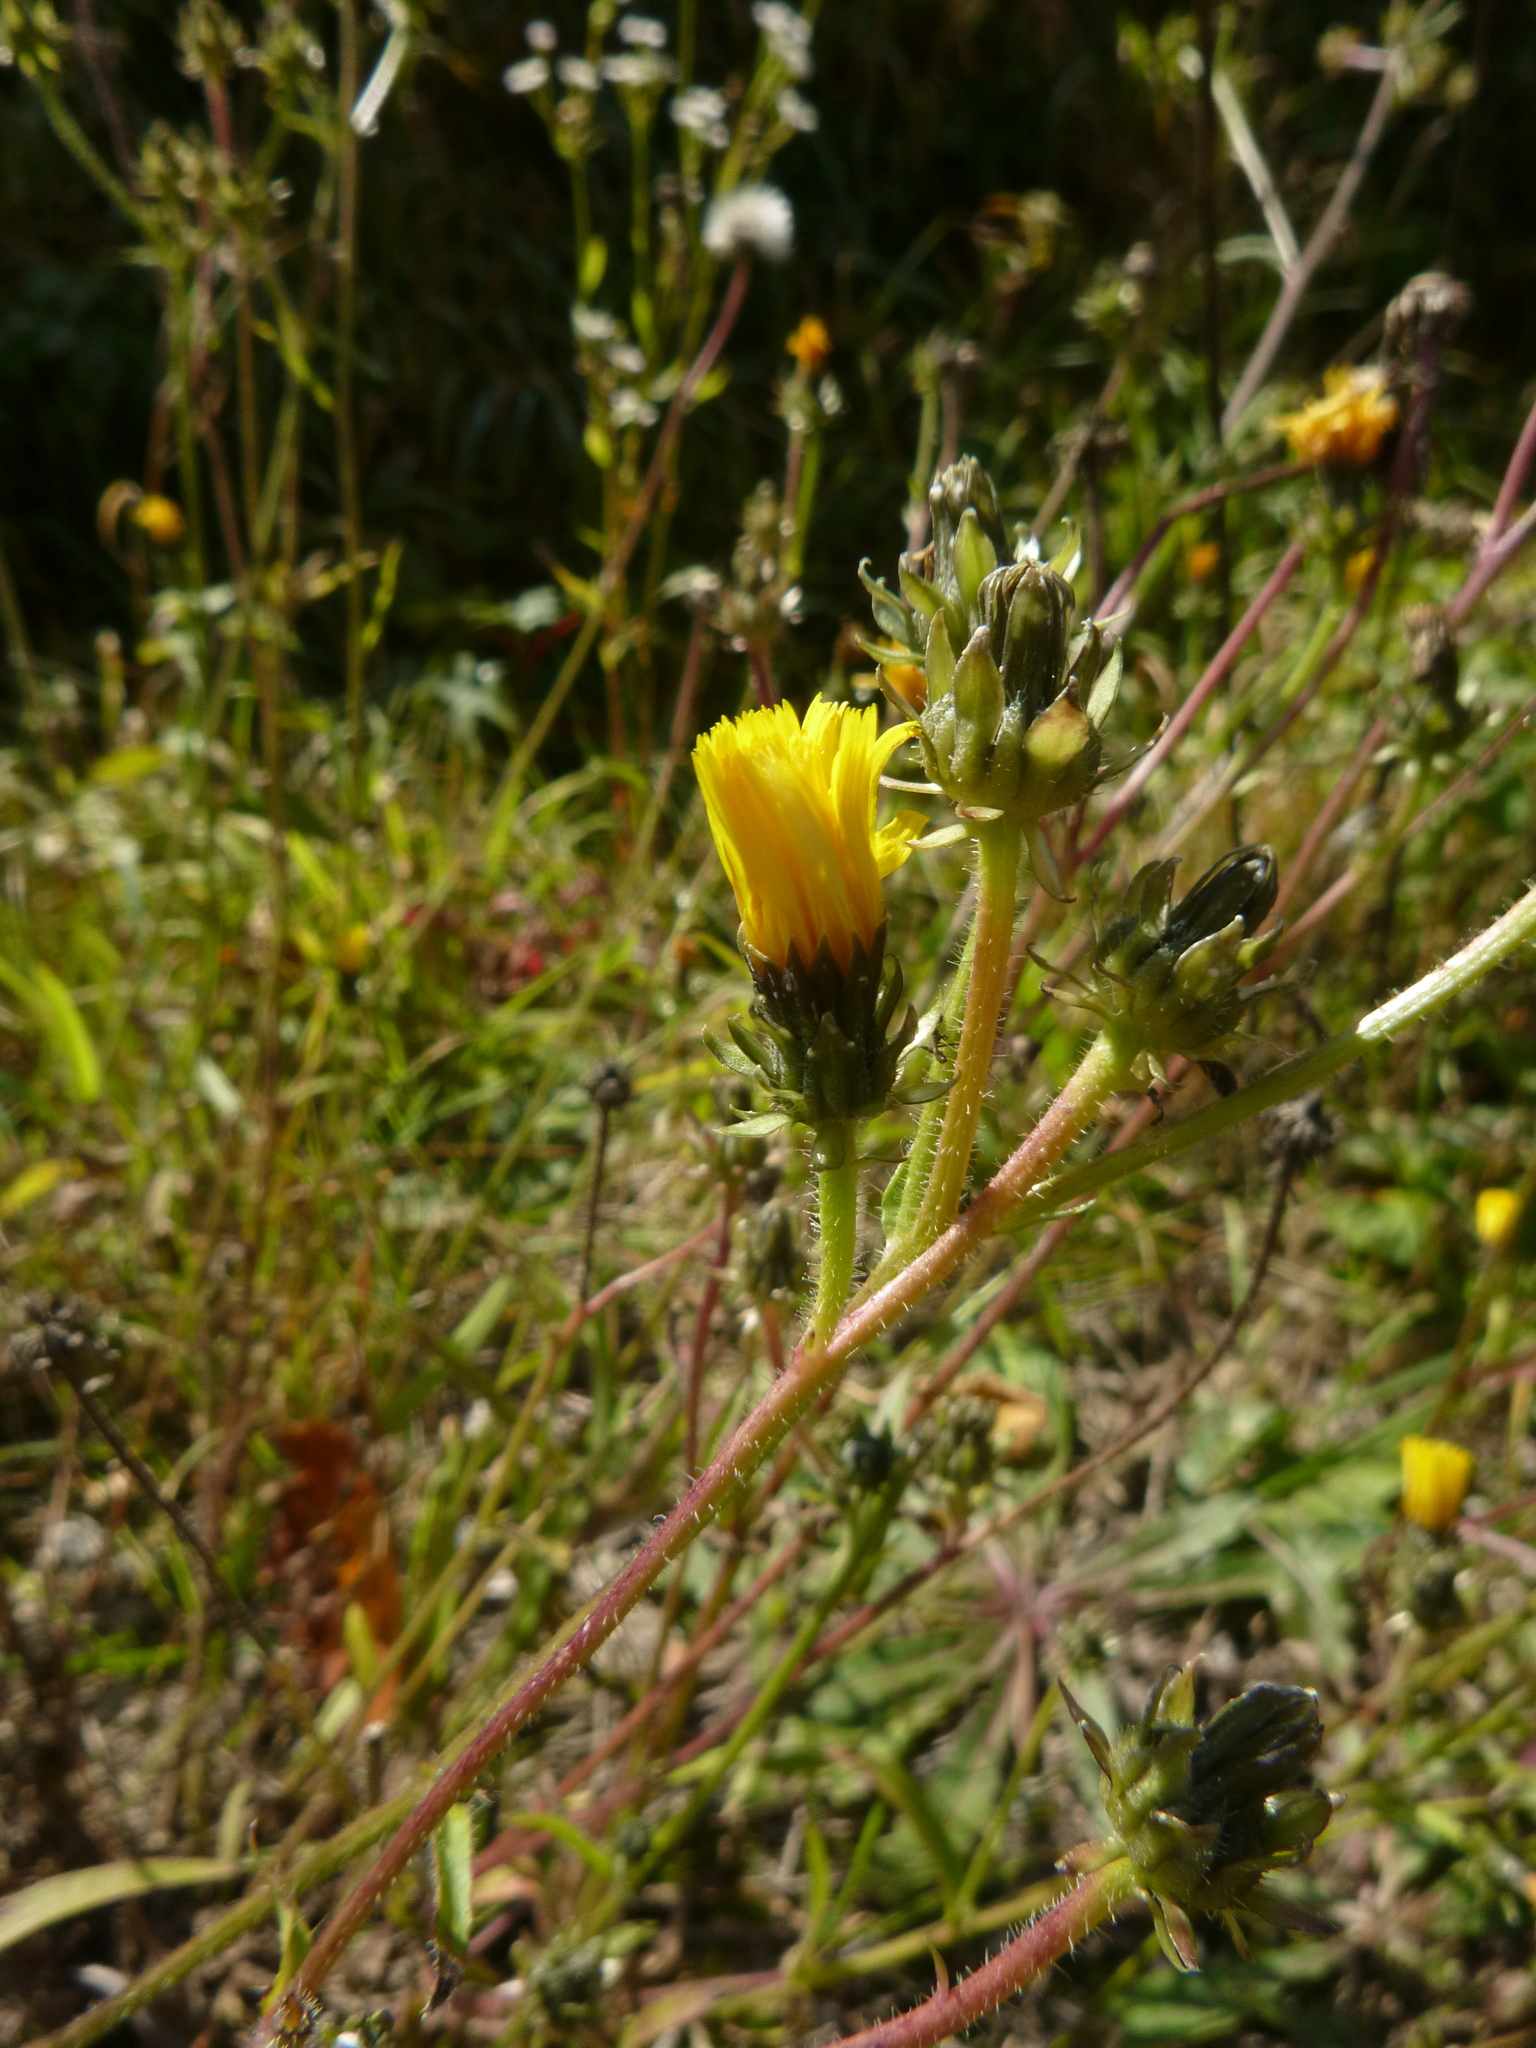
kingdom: Plantae
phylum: Tracheophyta
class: Magnoliopsida
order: Asterales
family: Asteraceae
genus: Picris
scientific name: Picris hieracioides
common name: Hawkweed oxtongue
